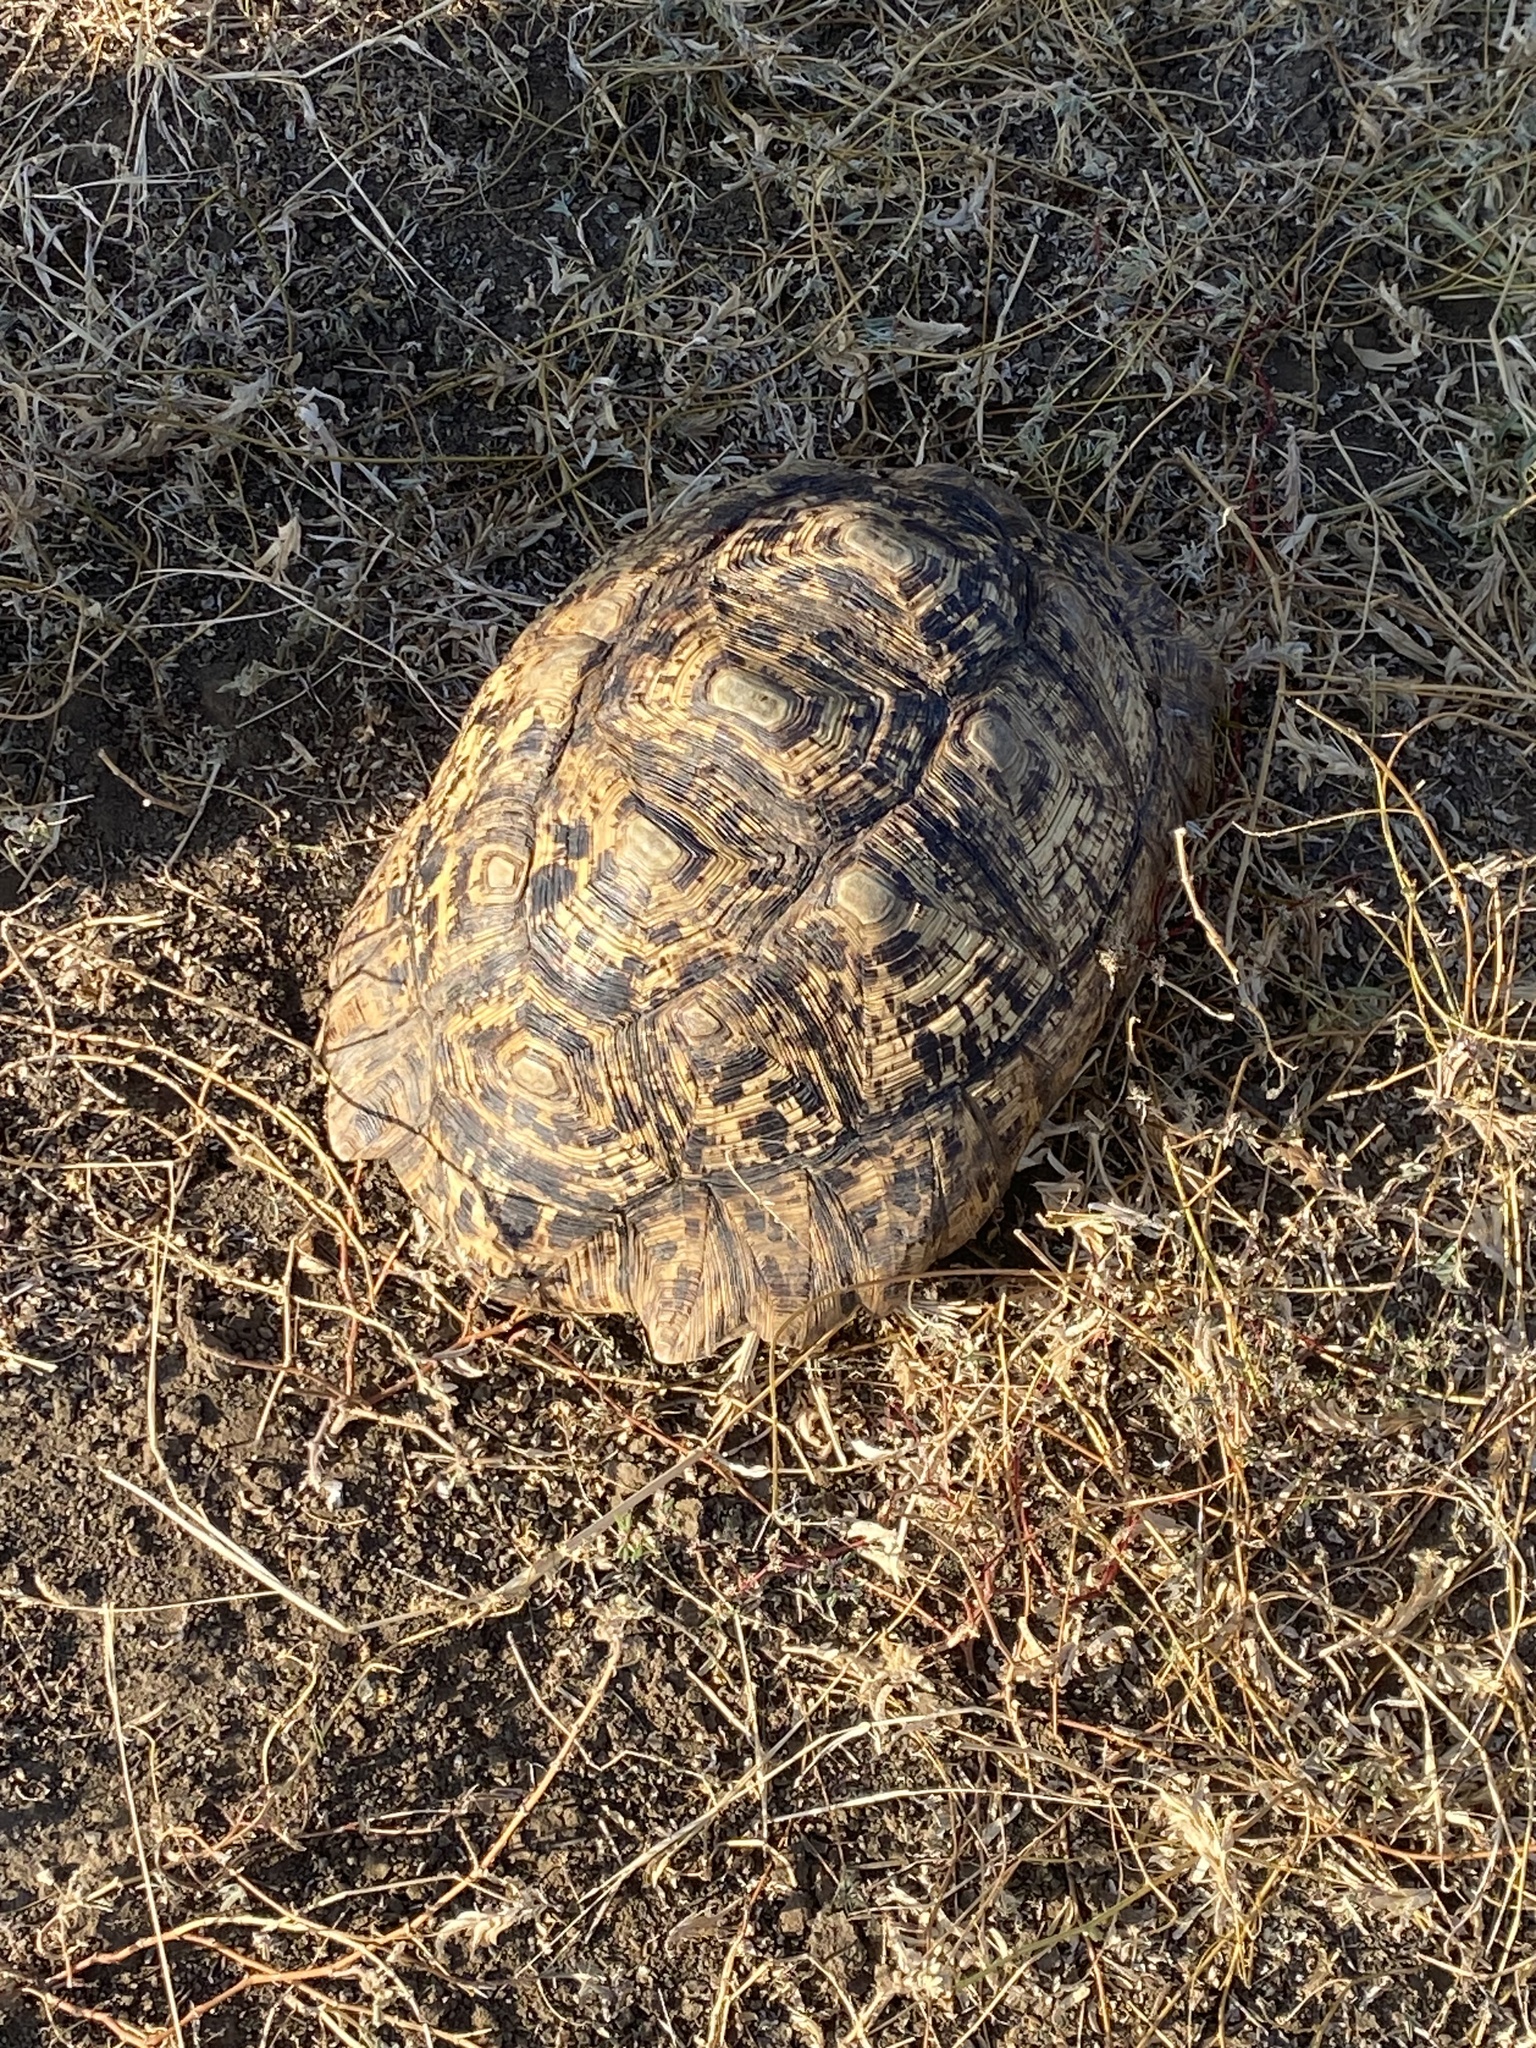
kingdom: Animalia
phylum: Chordata
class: Testudines
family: Testudinidae
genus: Stigmochelys
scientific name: Stigmochelys pardalis
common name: Leopard tortoise
